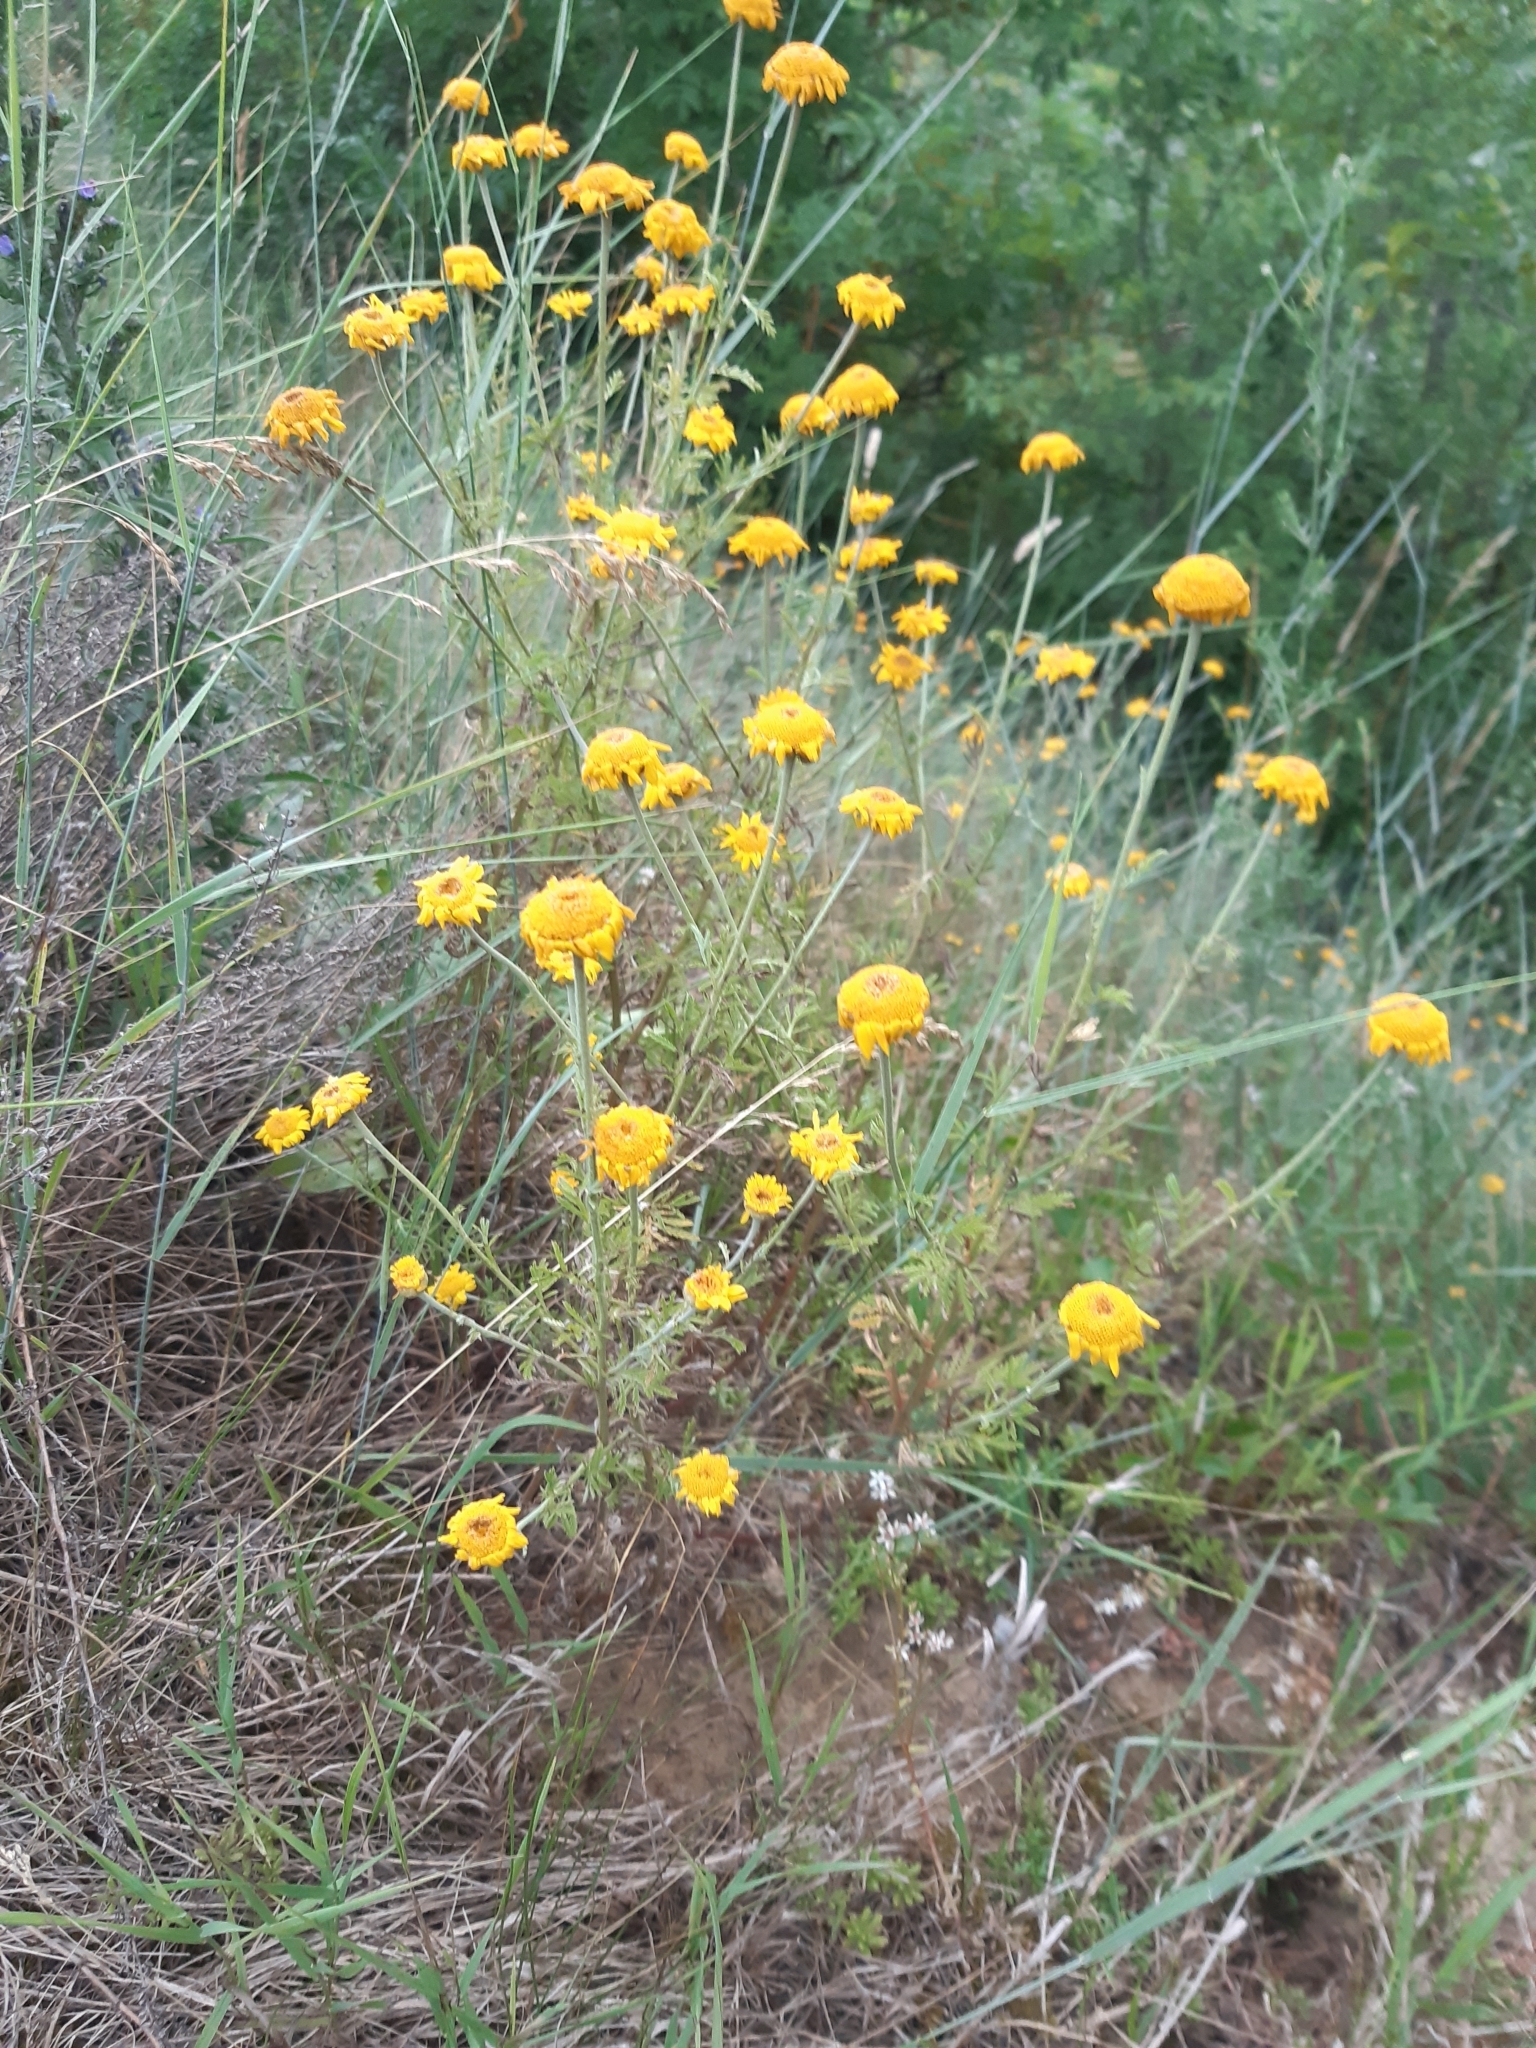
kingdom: Plantae
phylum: Tracheophyta
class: Magnoliopsida
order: Asterales
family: Asteraceae
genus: Cota
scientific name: Cota tinctoria
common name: Golden chamomile
